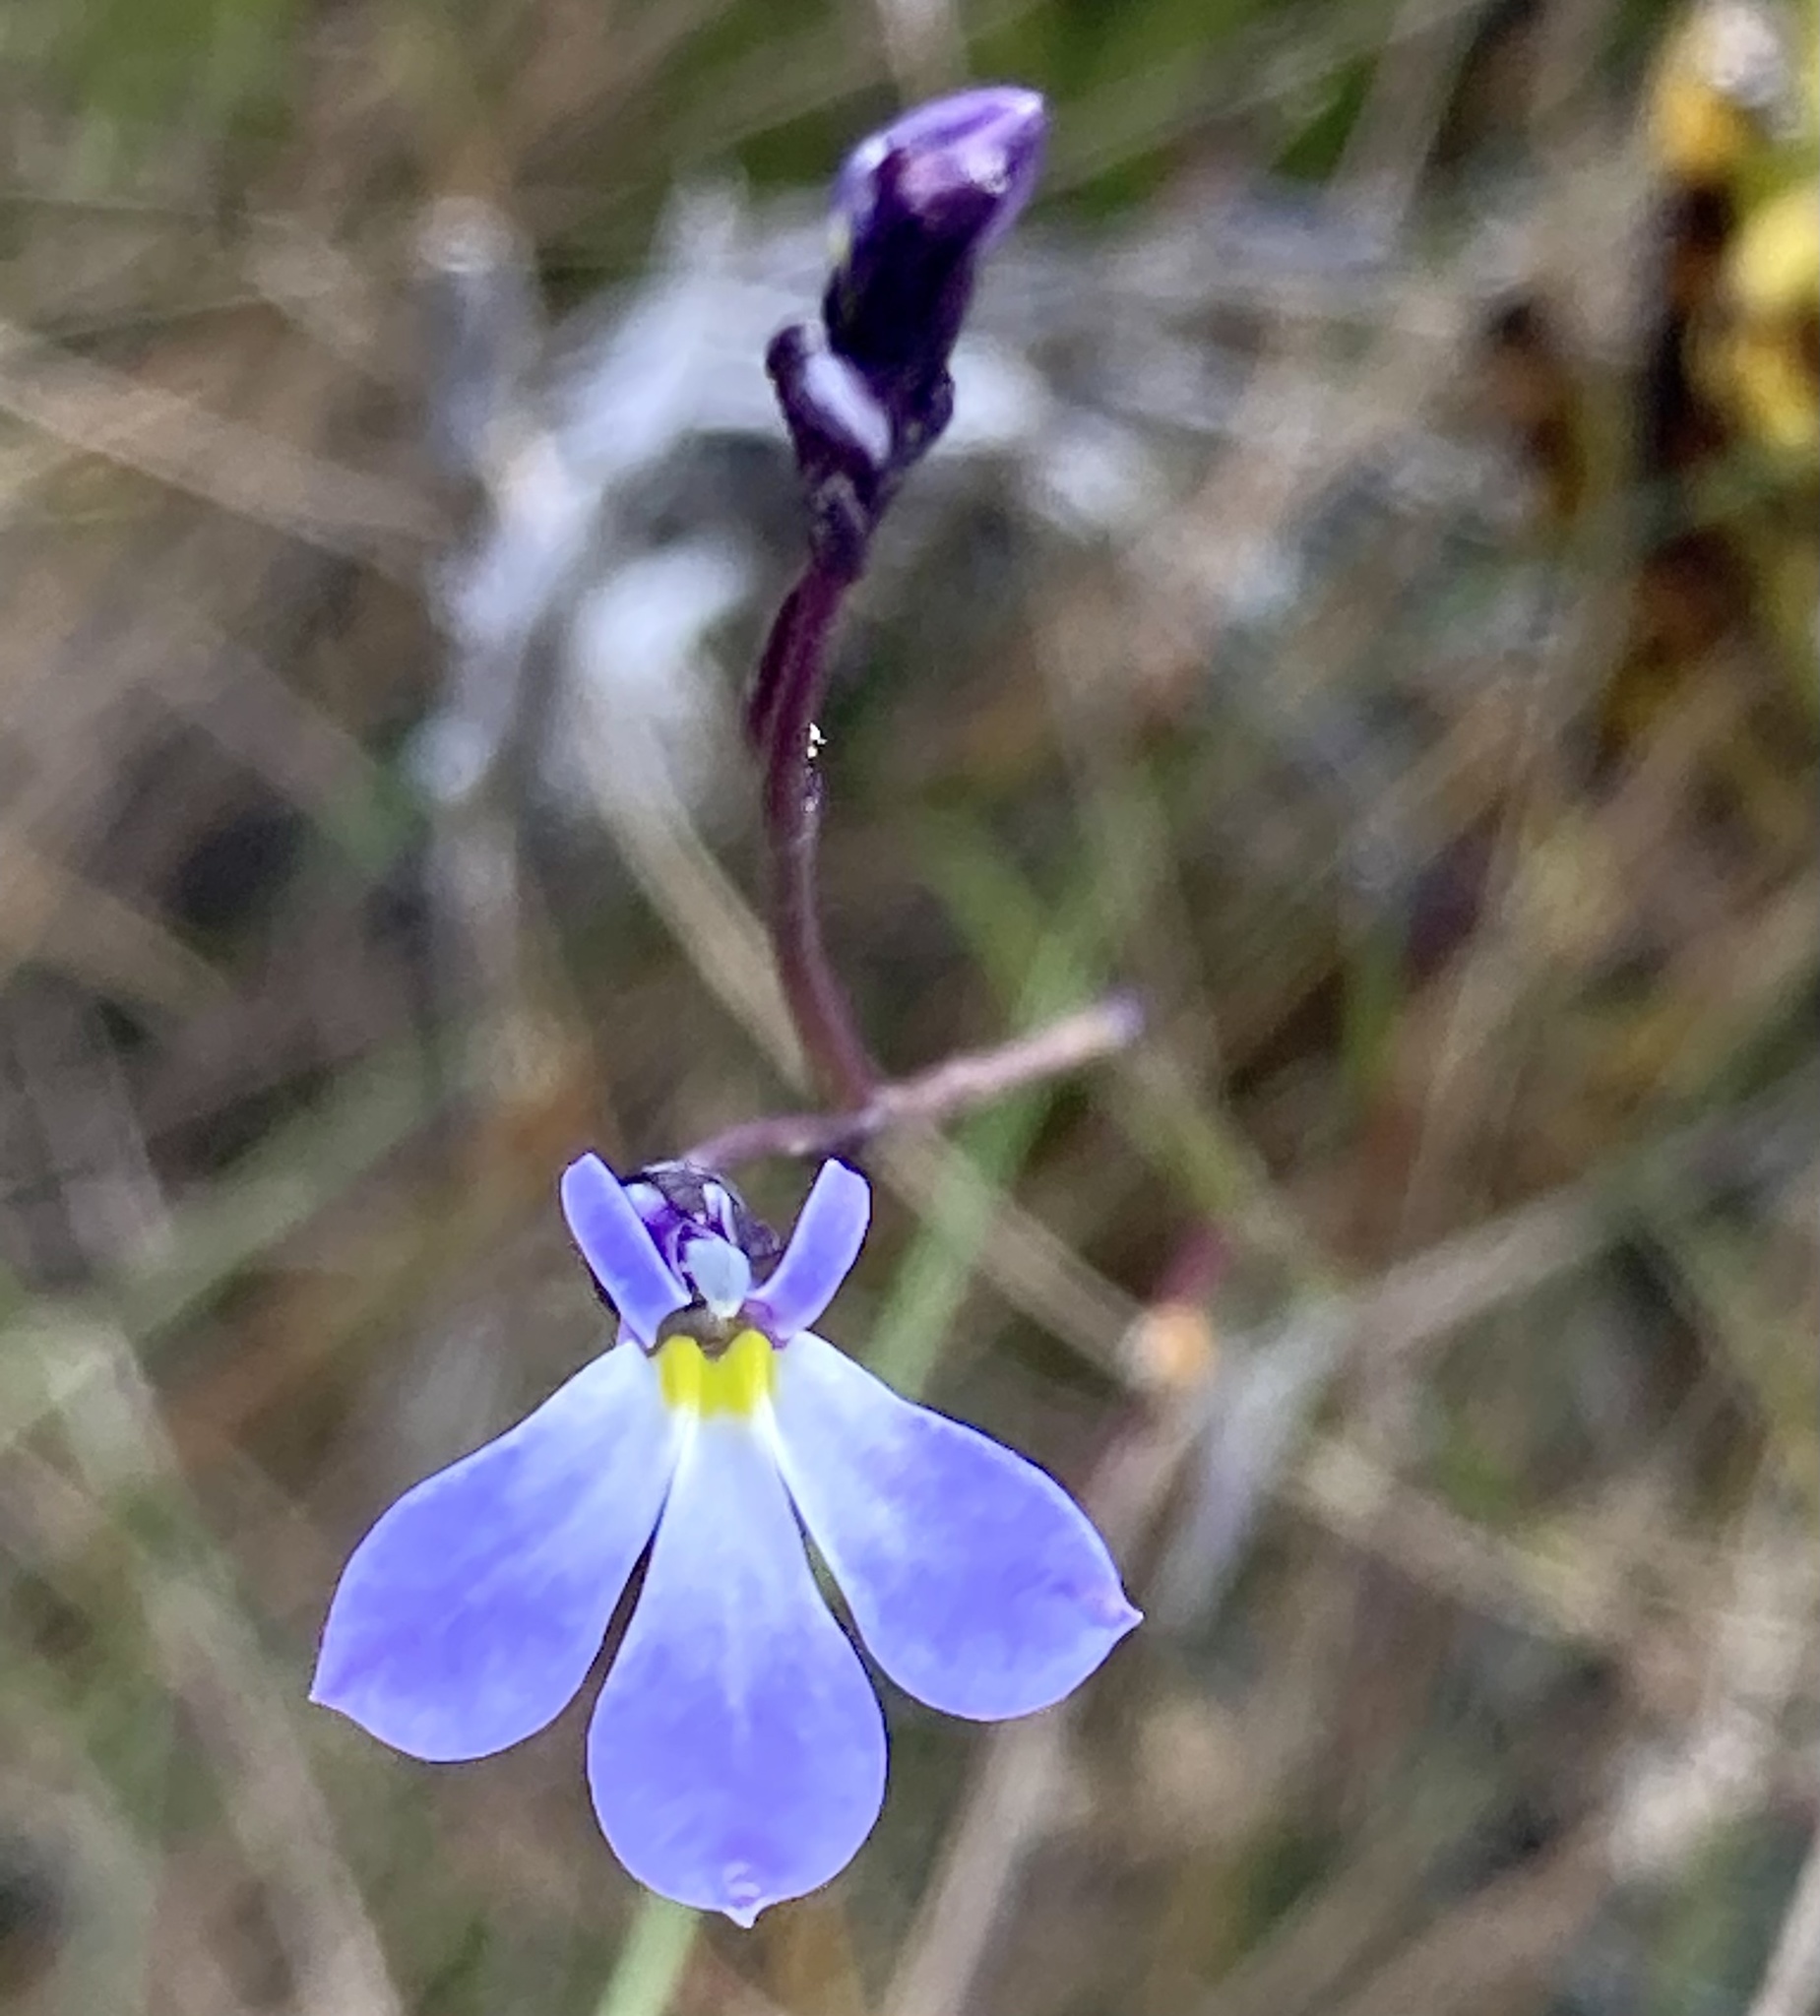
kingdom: Plantae
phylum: Tracheophyta
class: Magnoliopsida
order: Asterales
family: Campanulaceae
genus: Lobelia
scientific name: Lobelia tenera
